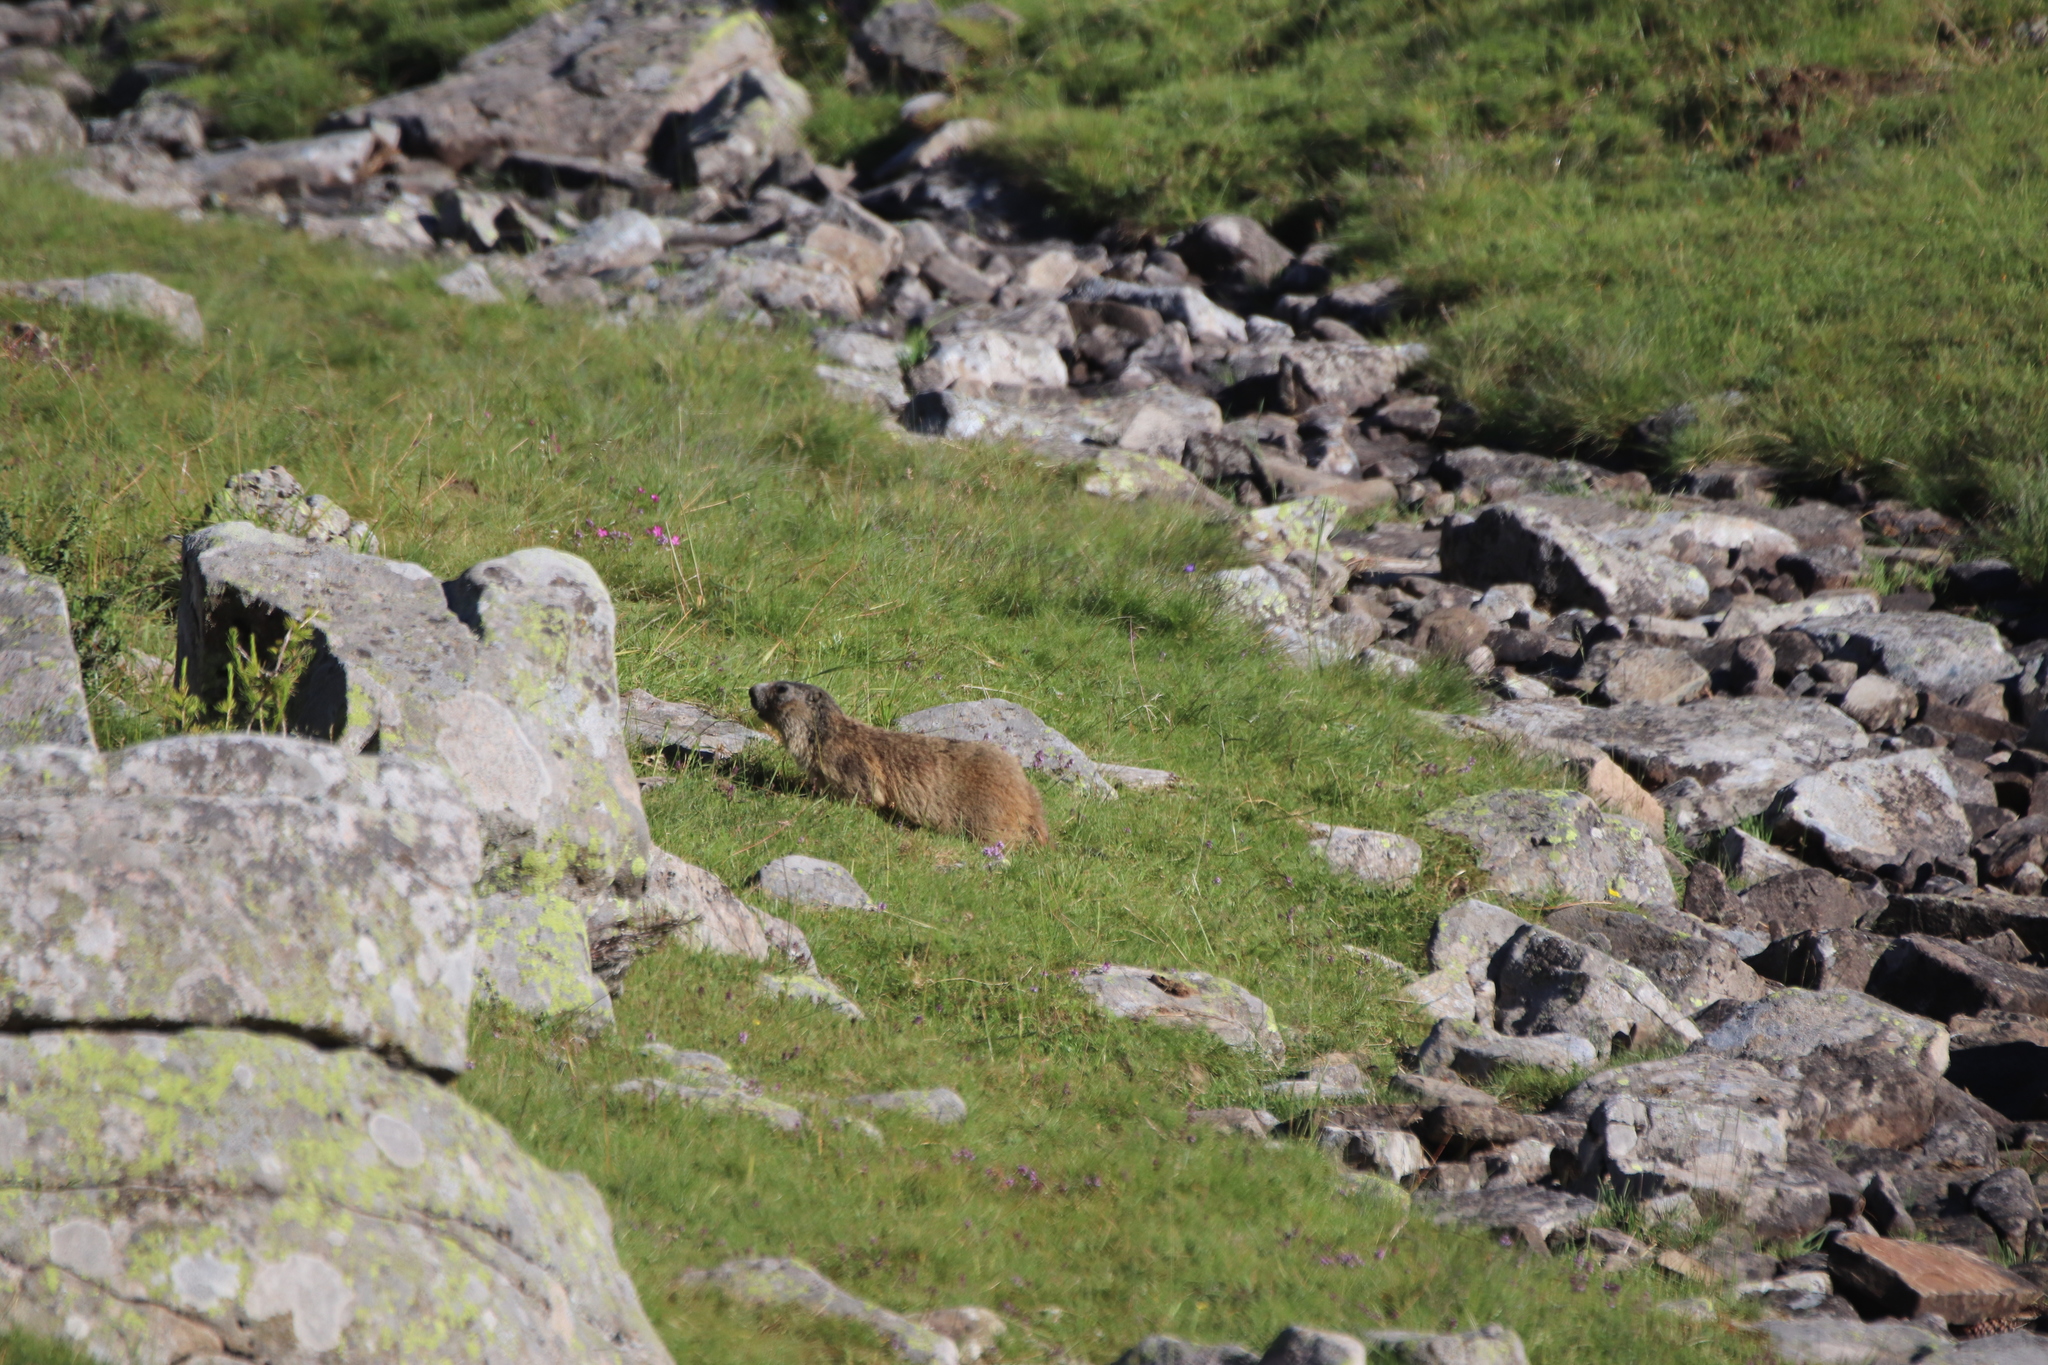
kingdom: Animalia
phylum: Chordata
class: Mammalia
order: Rodentia
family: Sciuridae
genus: Marmota
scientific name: Marmota marmota
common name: Alpine marmot
